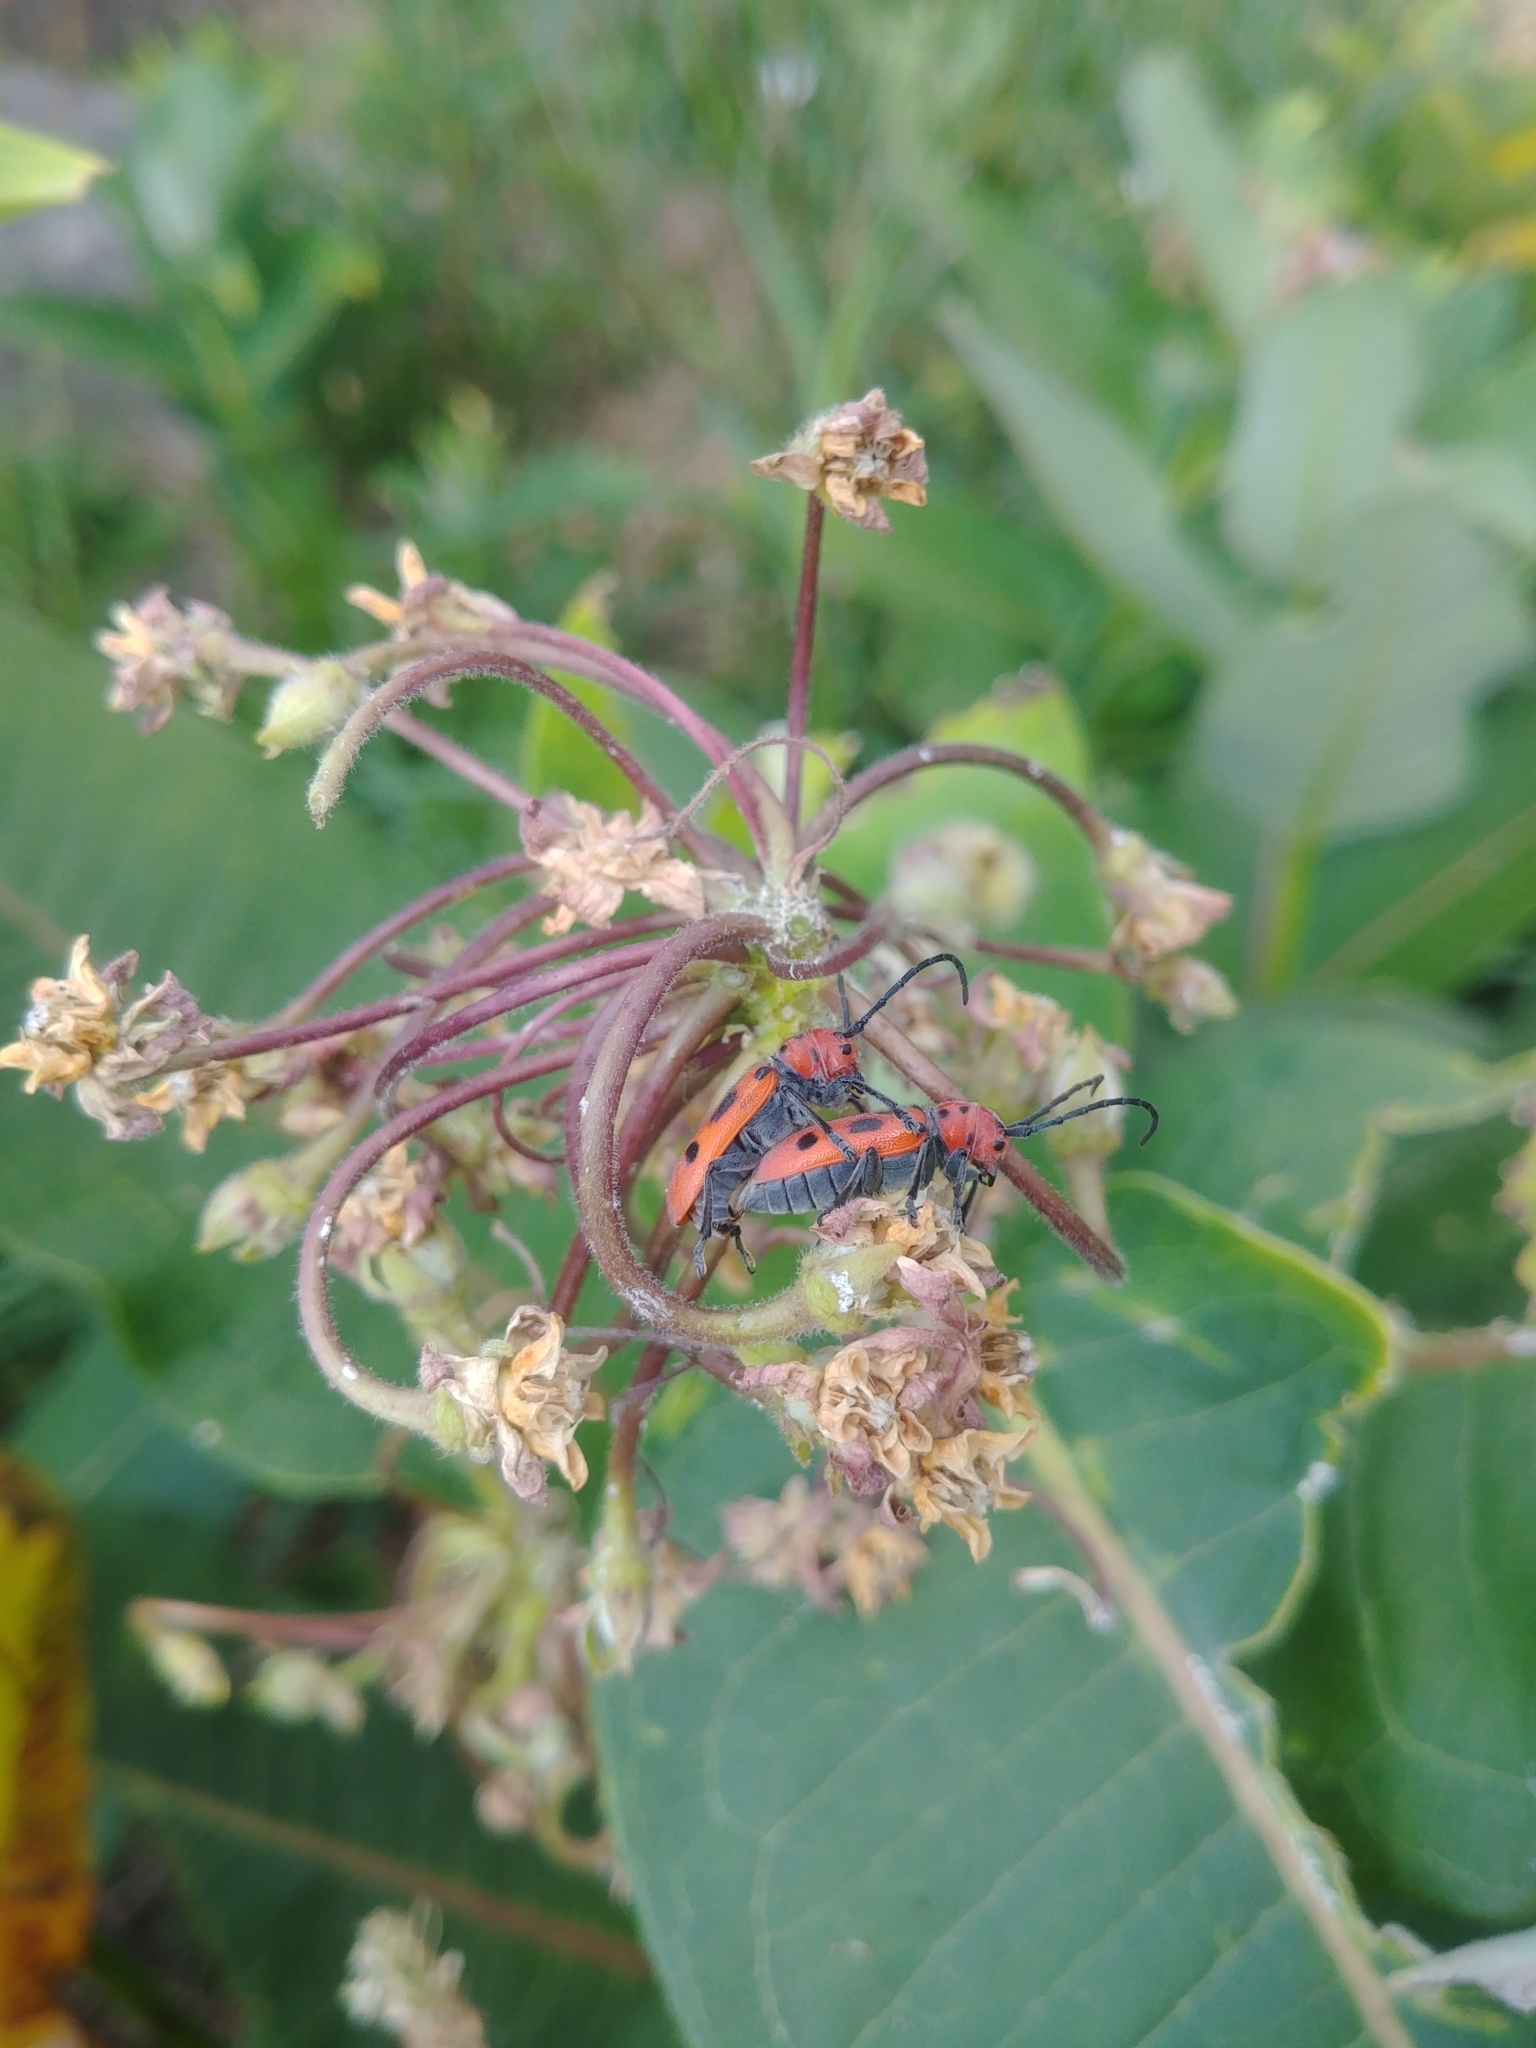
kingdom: Animalia
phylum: Arthropoda
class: Insecta
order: Coleoptera
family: Cerambycidae
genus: Tetraopes
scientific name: Tetraopes tetrophthalmus
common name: Red milkweed beetle
